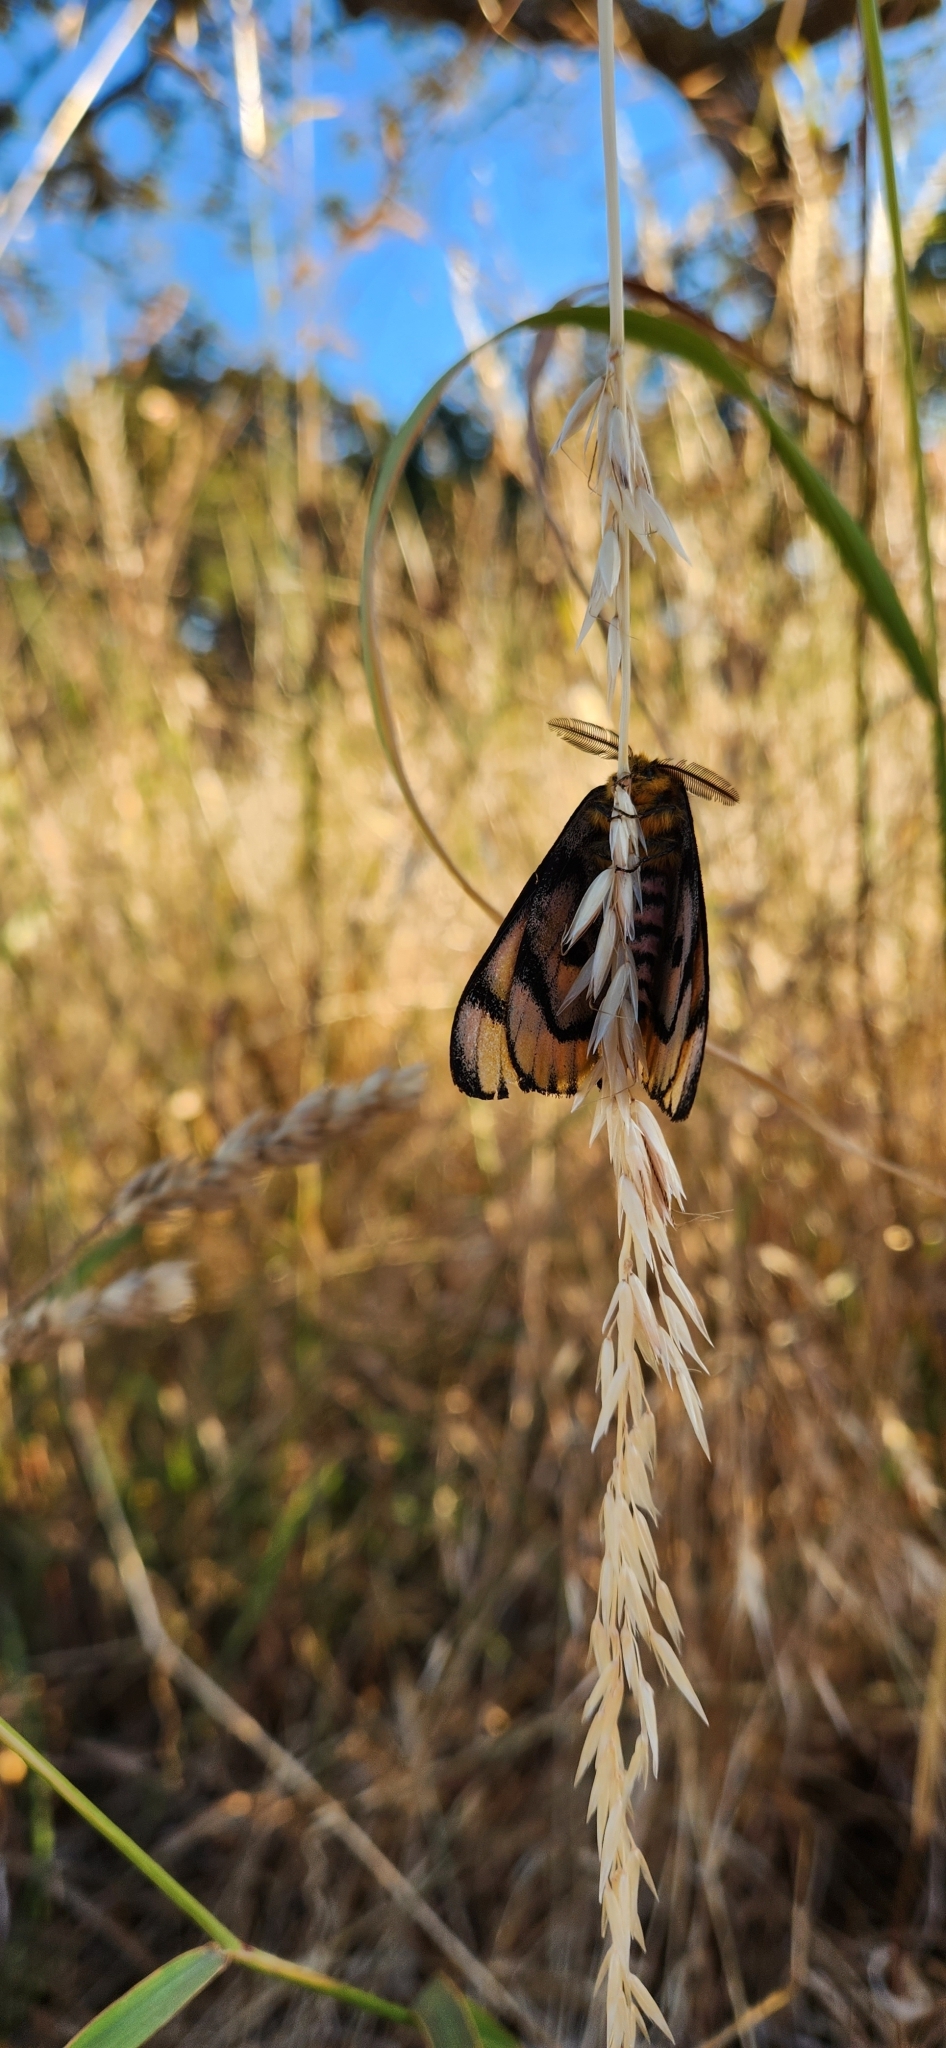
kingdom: Animalia
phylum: Arthropoda
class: Insecta
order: Lepidoptera
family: Saturniidae
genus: Hemileuca
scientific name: Hemileuca eglanterina
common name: Western sheepmoth
